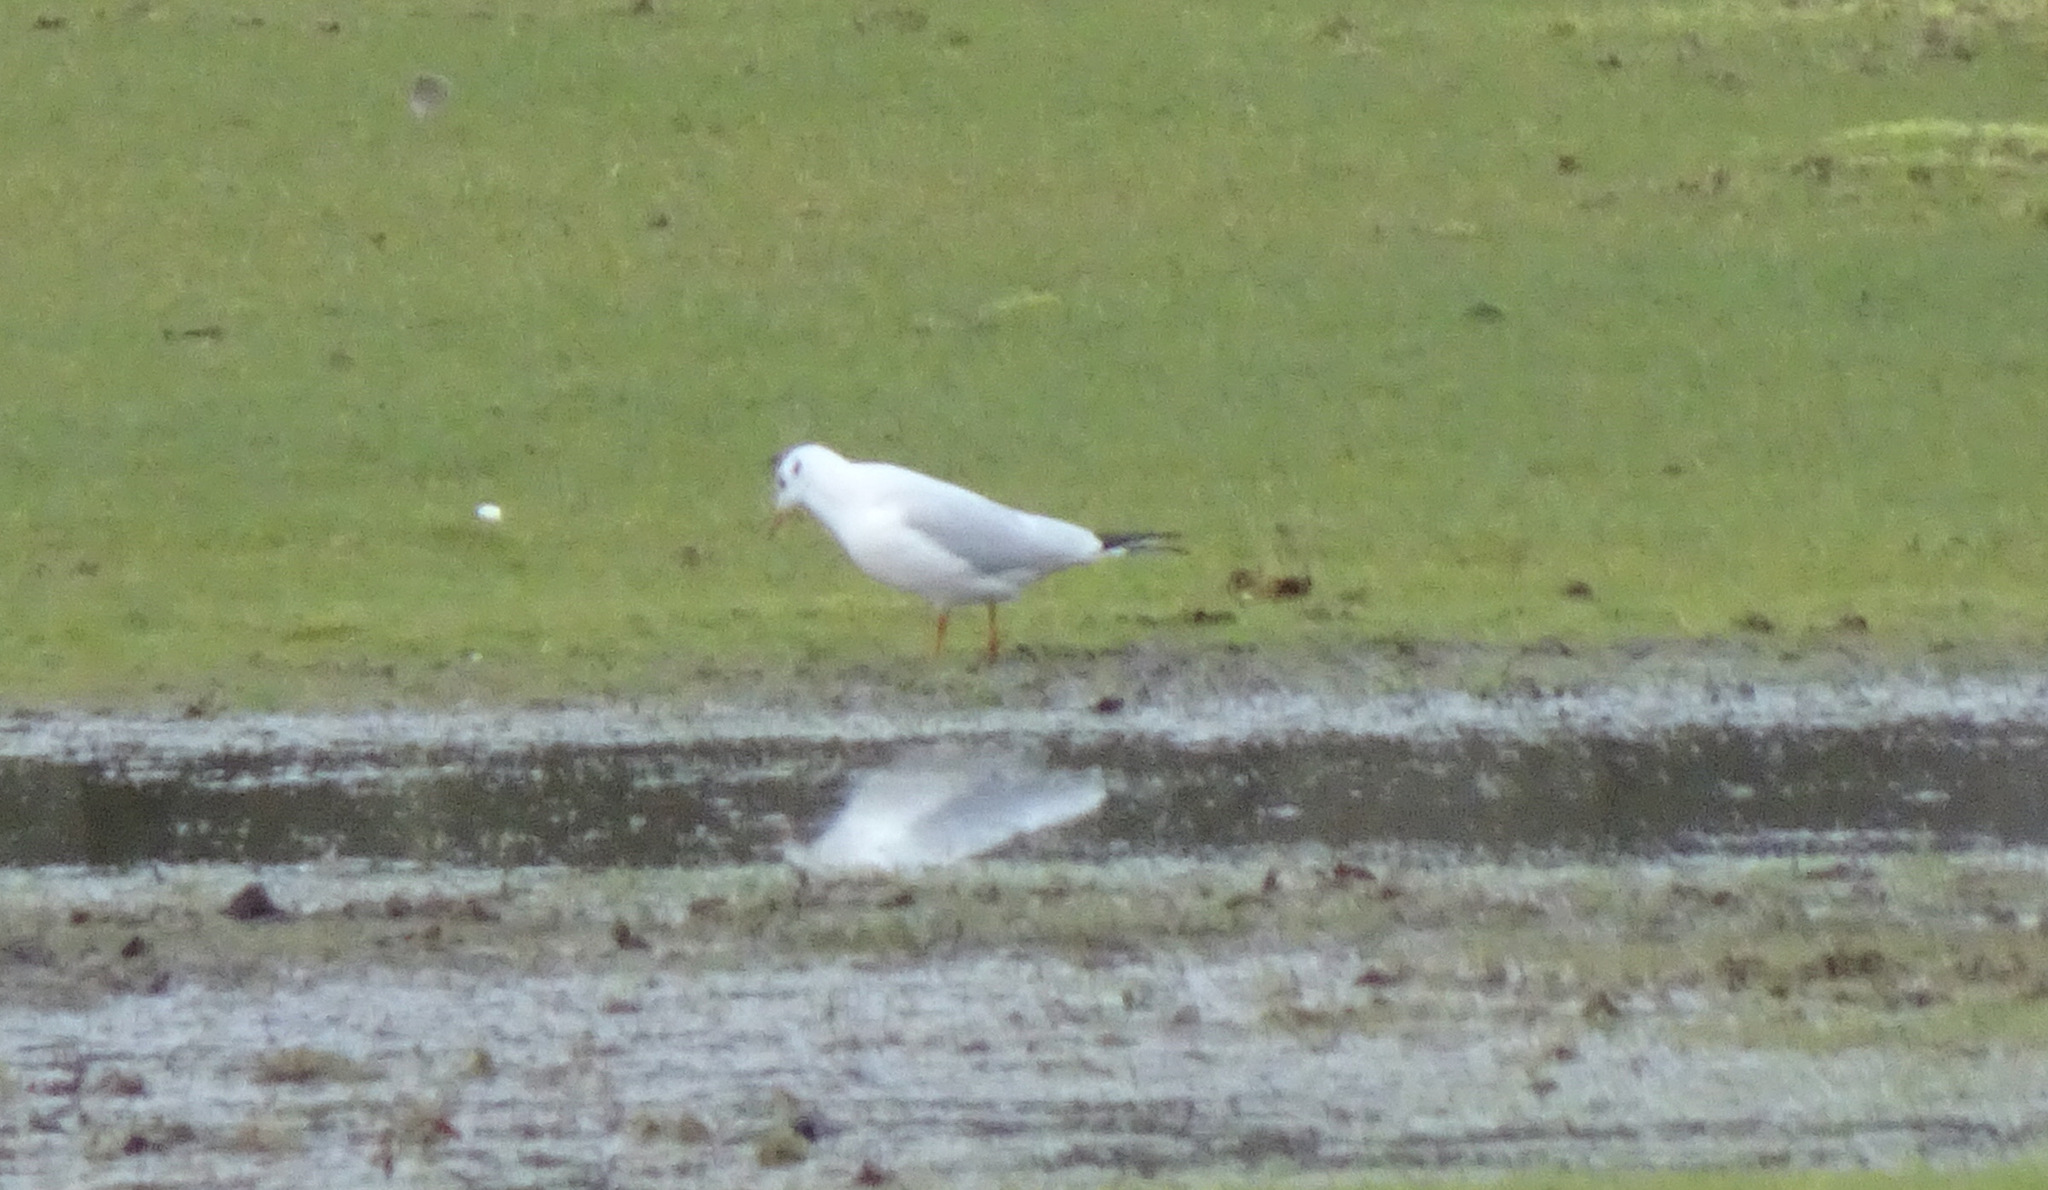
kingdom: Animalia
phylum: Chordata
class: Aves
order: Charadriiformes
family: Laridae
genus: Chroicocephalus
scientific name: Chroicocephalus ridibundus
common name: Black-headed gull
